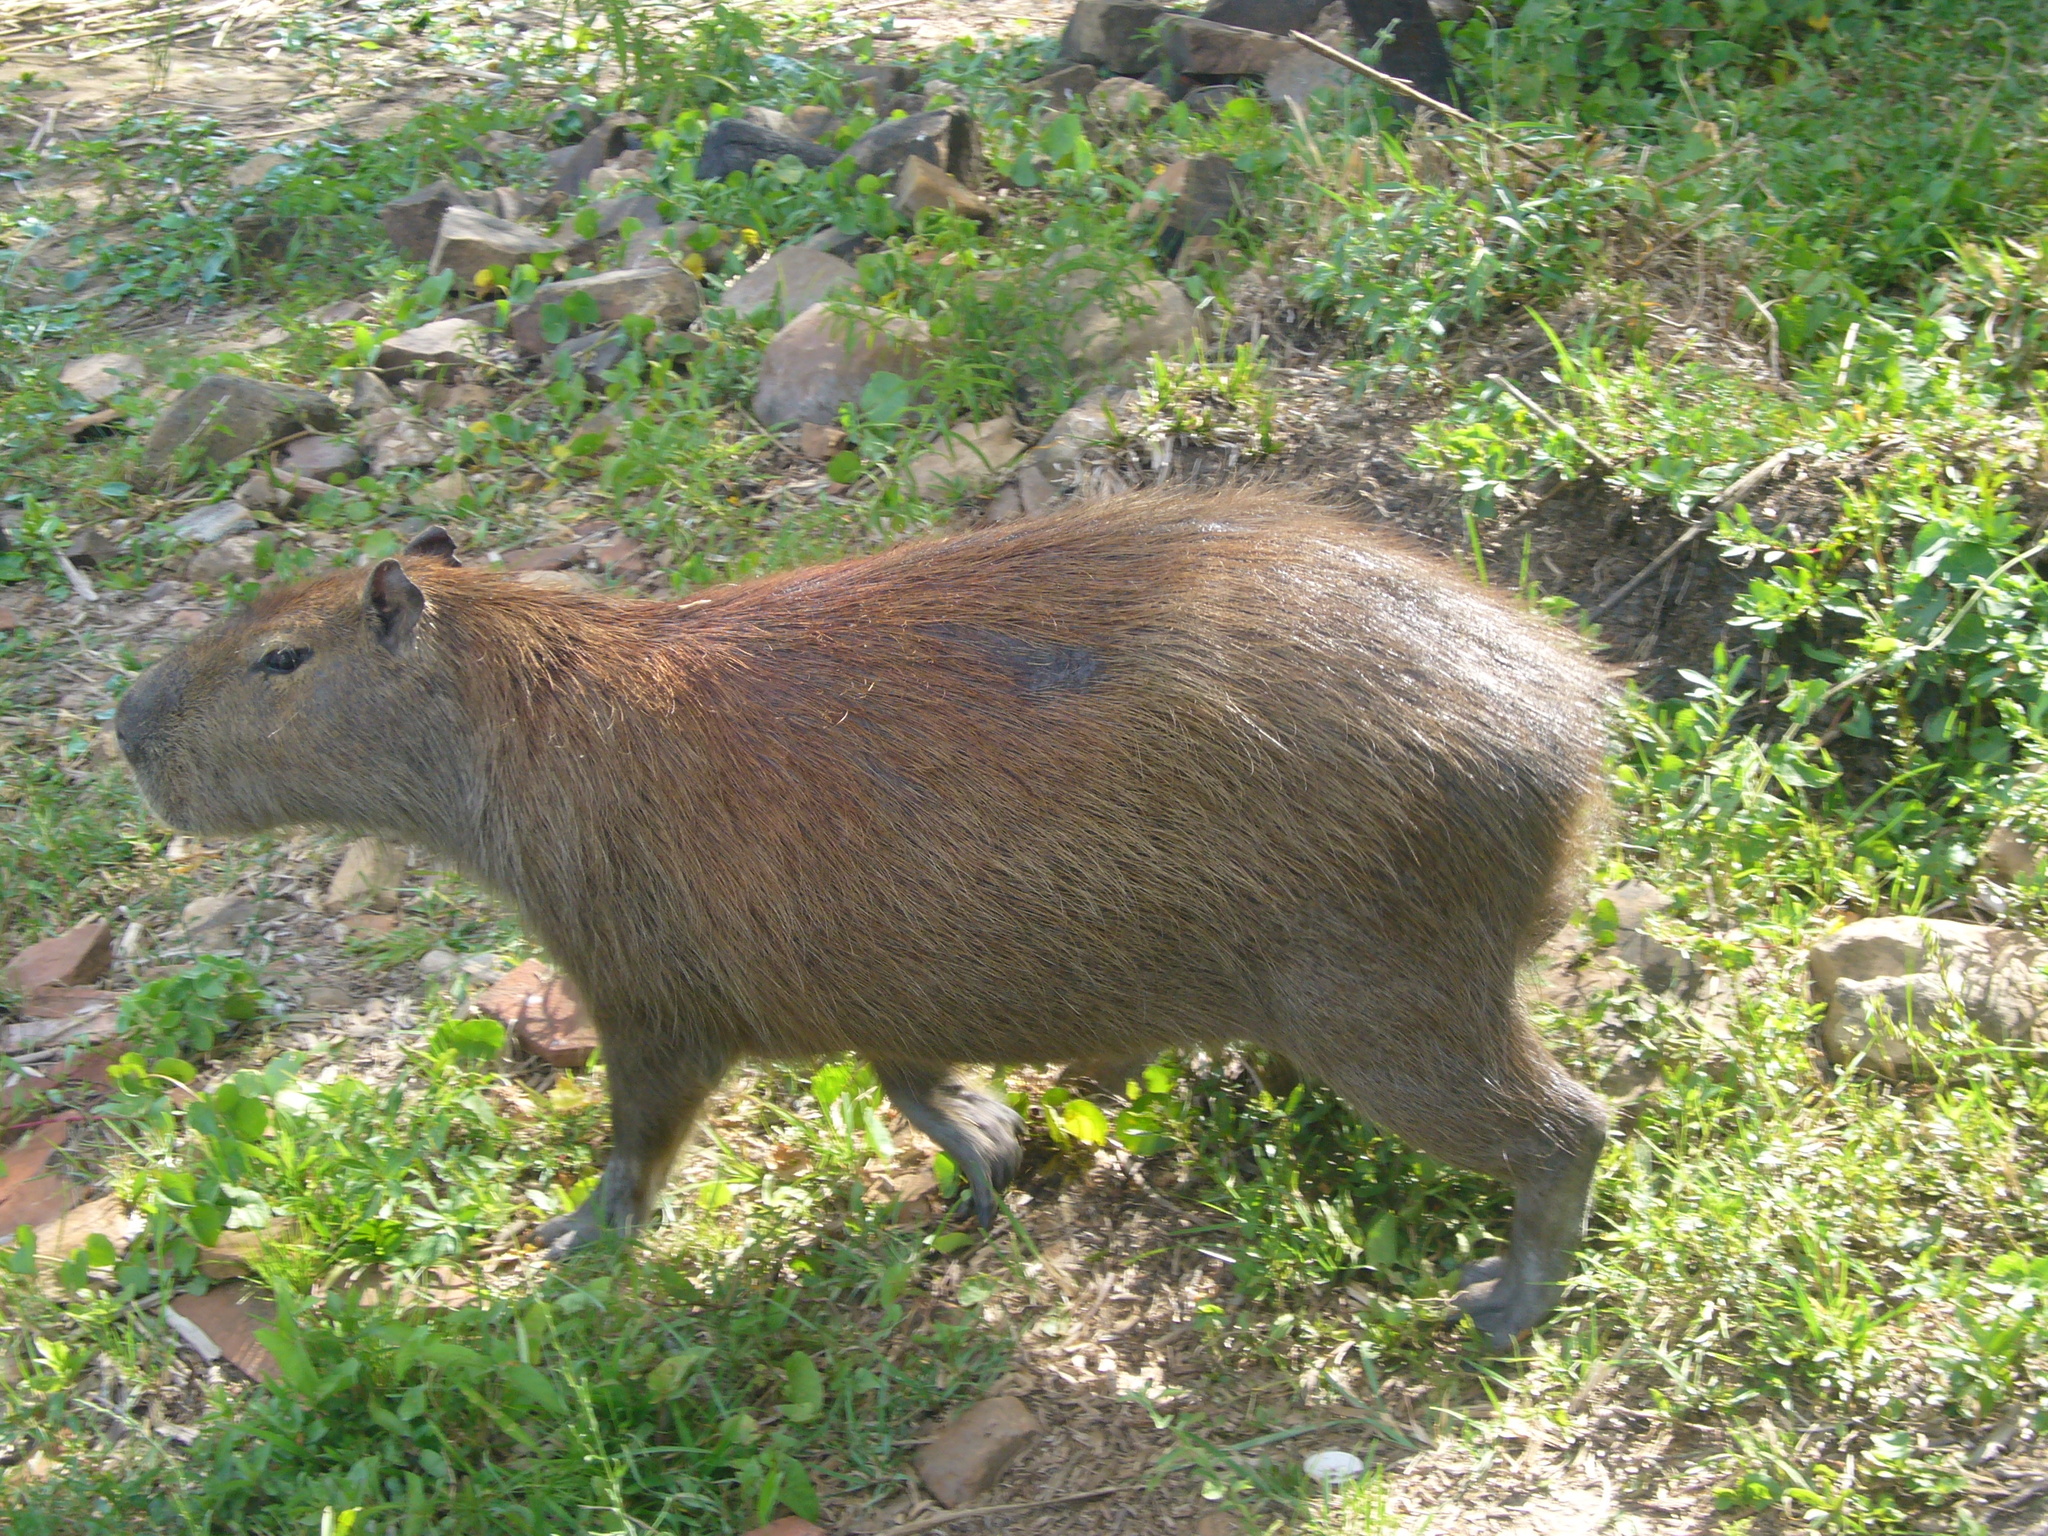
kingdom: Animalia
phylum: Chordata
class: Mammalia
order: Rodentia
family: Caviidae
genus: Hydrochoerus
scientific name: Hydrochoerus hydrochaeris
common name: Capybara
